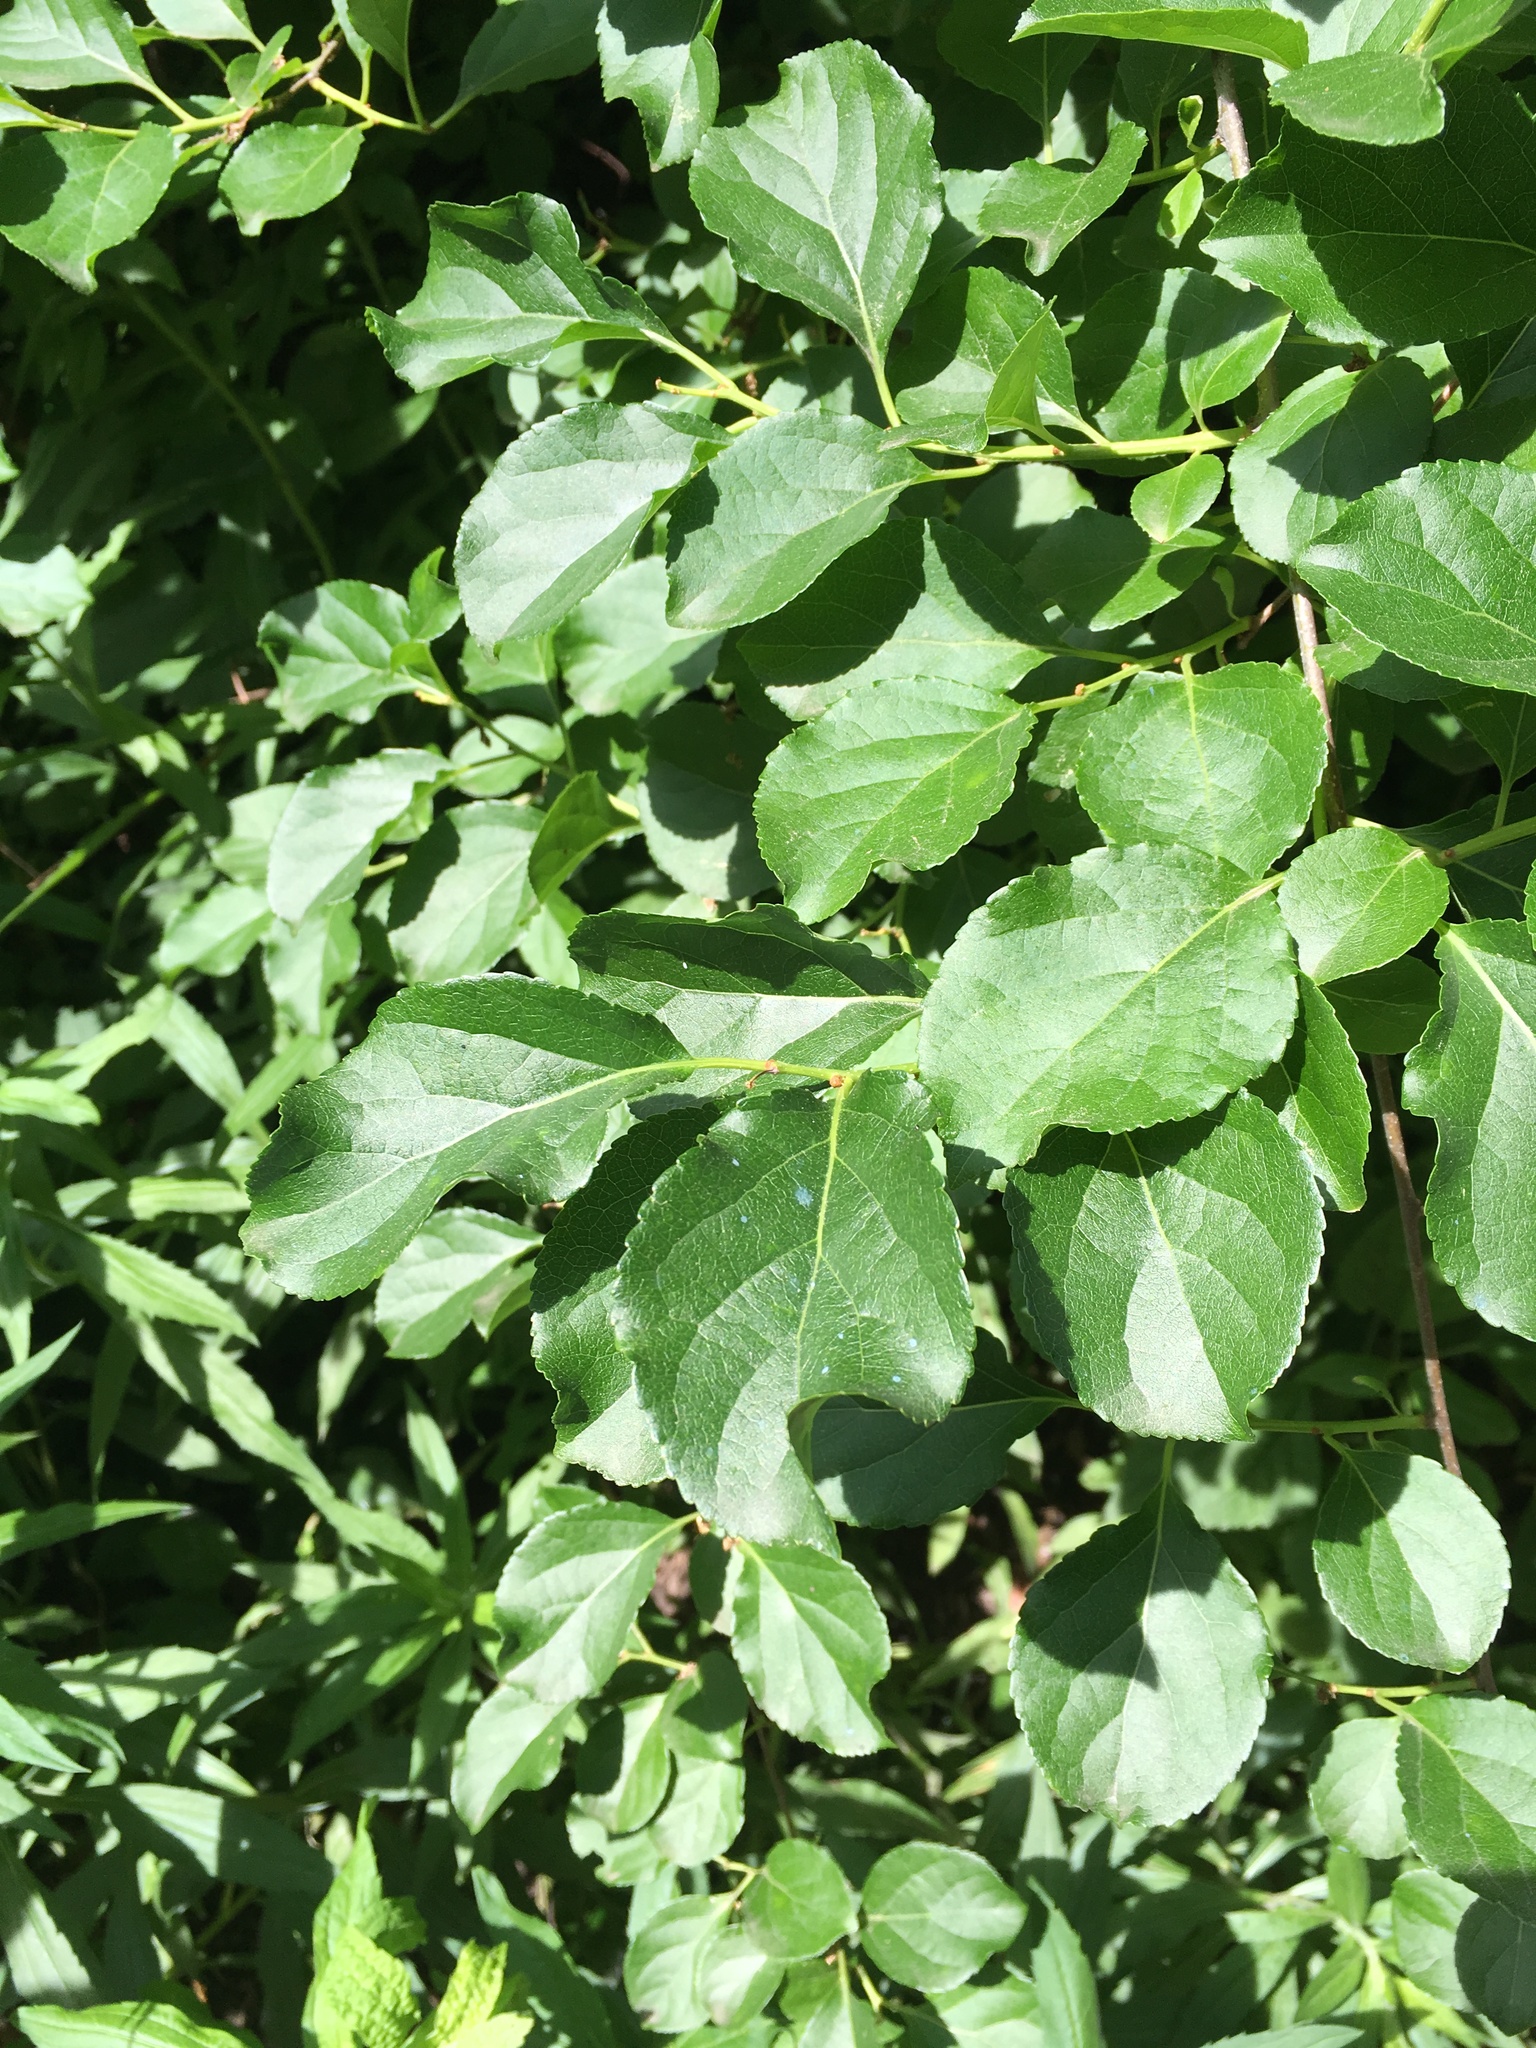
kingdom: Plantae
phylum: Tracheophyta
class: Magnoliopsida
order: Celastrales
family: Celastraceae
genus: Celastrus
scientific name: Celastrus orbiculatus
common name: Oriental bittersweet
